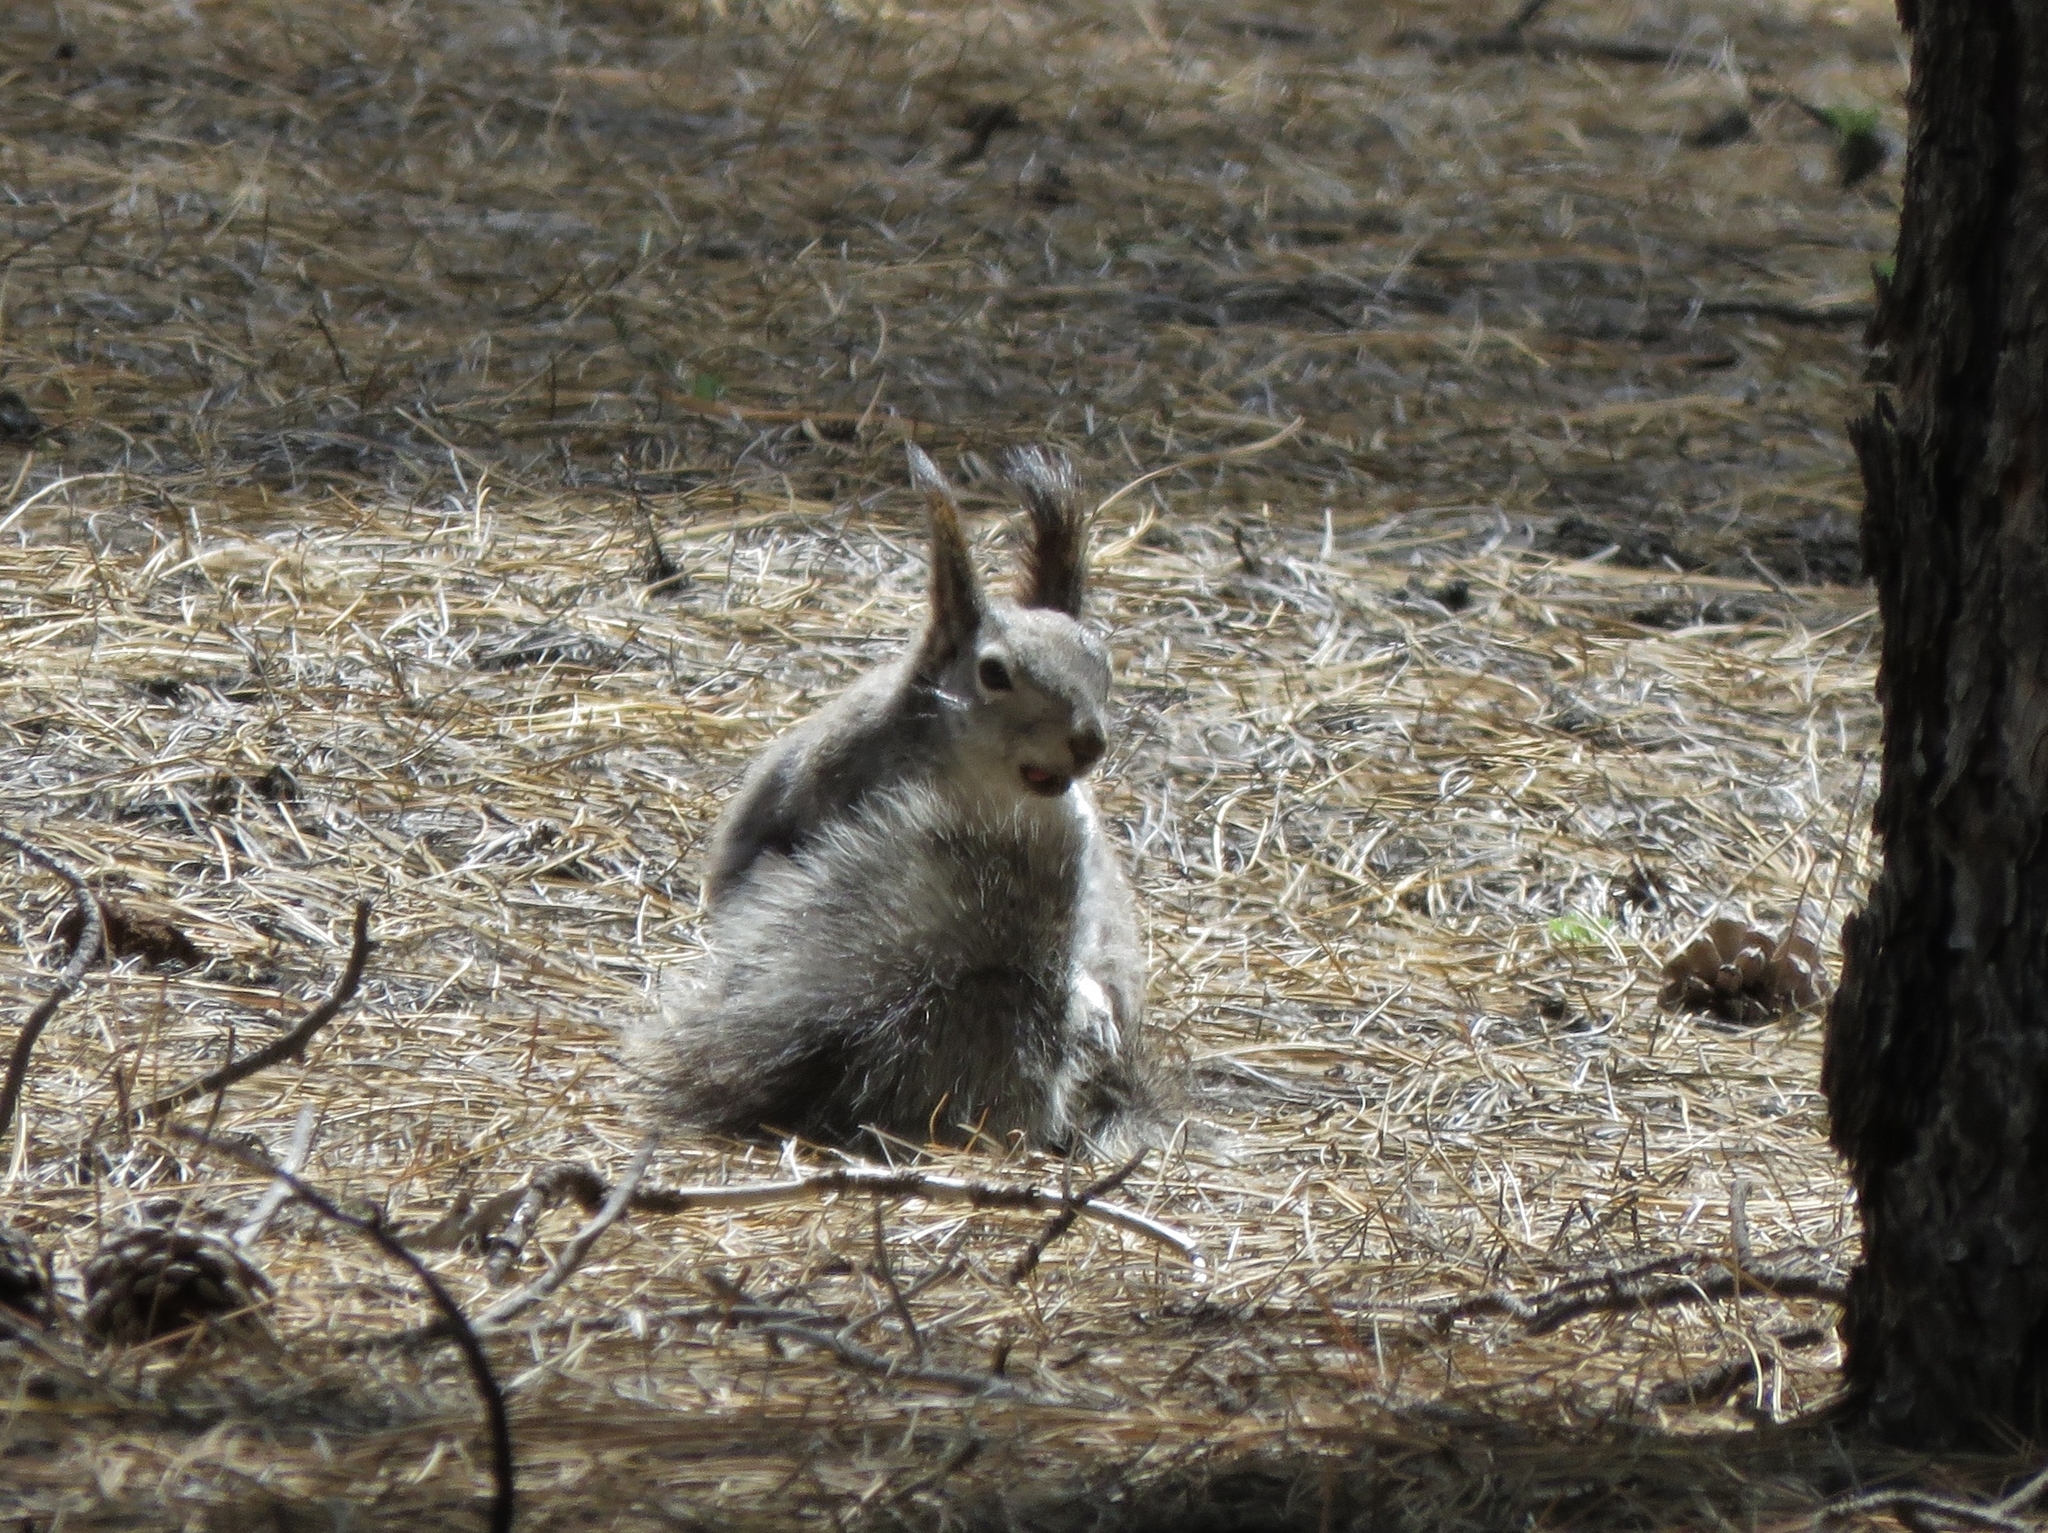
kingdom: Animalia
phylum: Chordata
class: Mammalia
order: Rodentia
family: Sciuridae
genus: Sciurus
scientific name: Sciurus aberti
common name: Abert's squirrel
